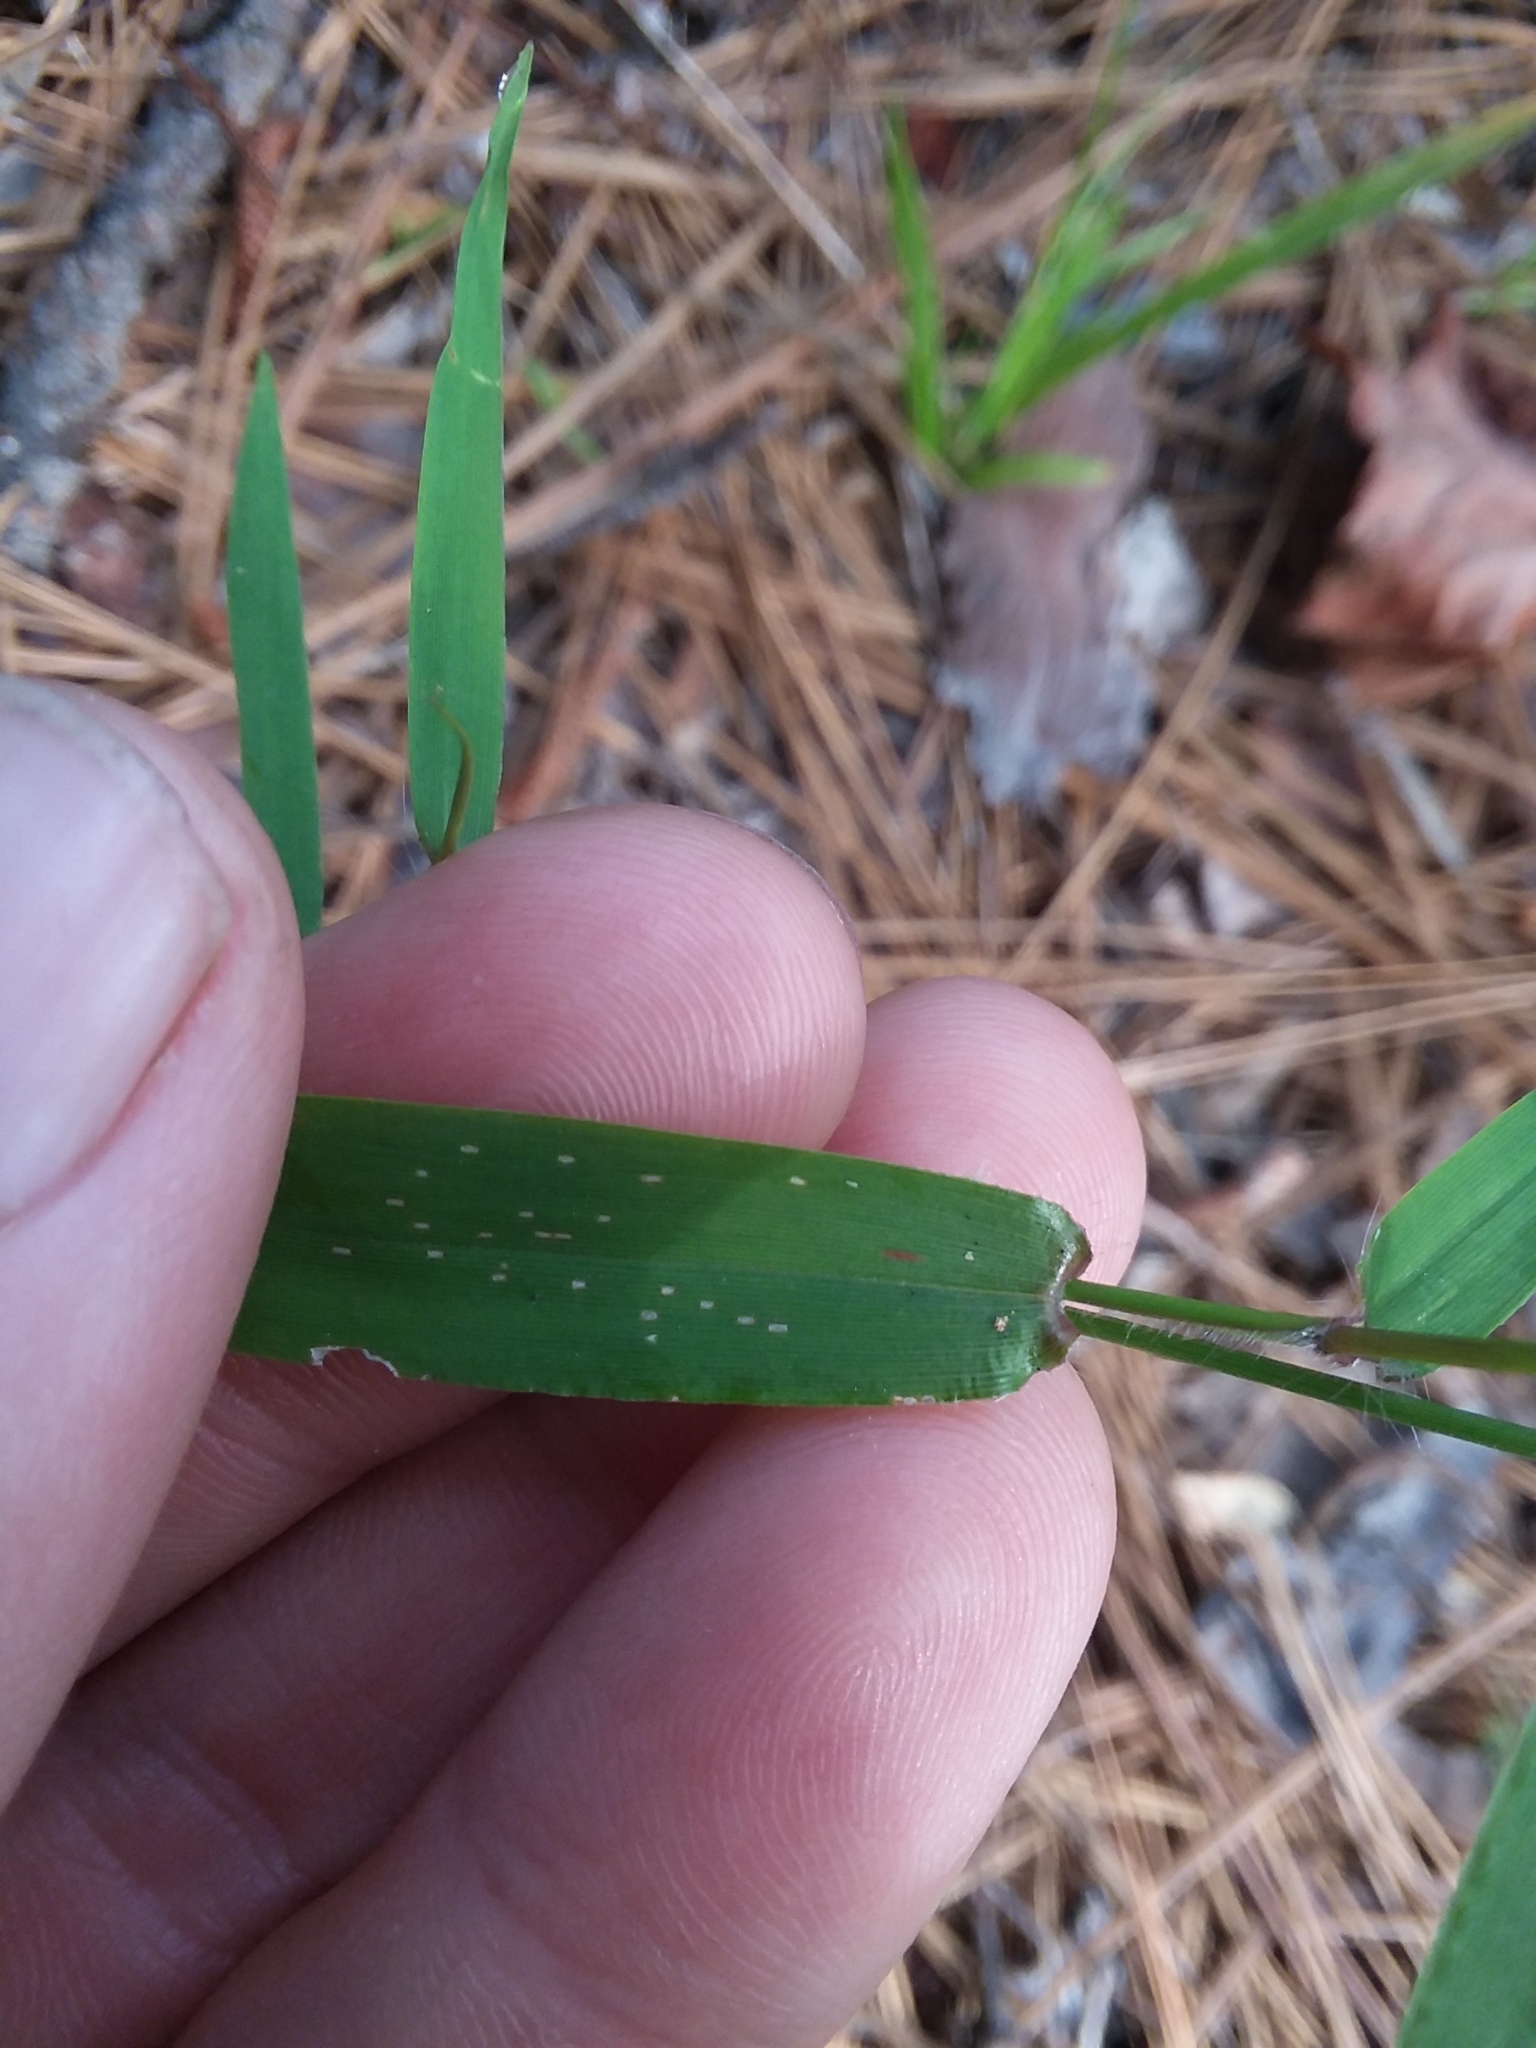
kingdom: Plantae
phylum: Tracheophyta
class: Liliopsida
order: Poales
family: Poaceae
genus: Dichanthelium
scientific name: Dichanthelium microcarpon
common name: Small-fruited witchgrass
